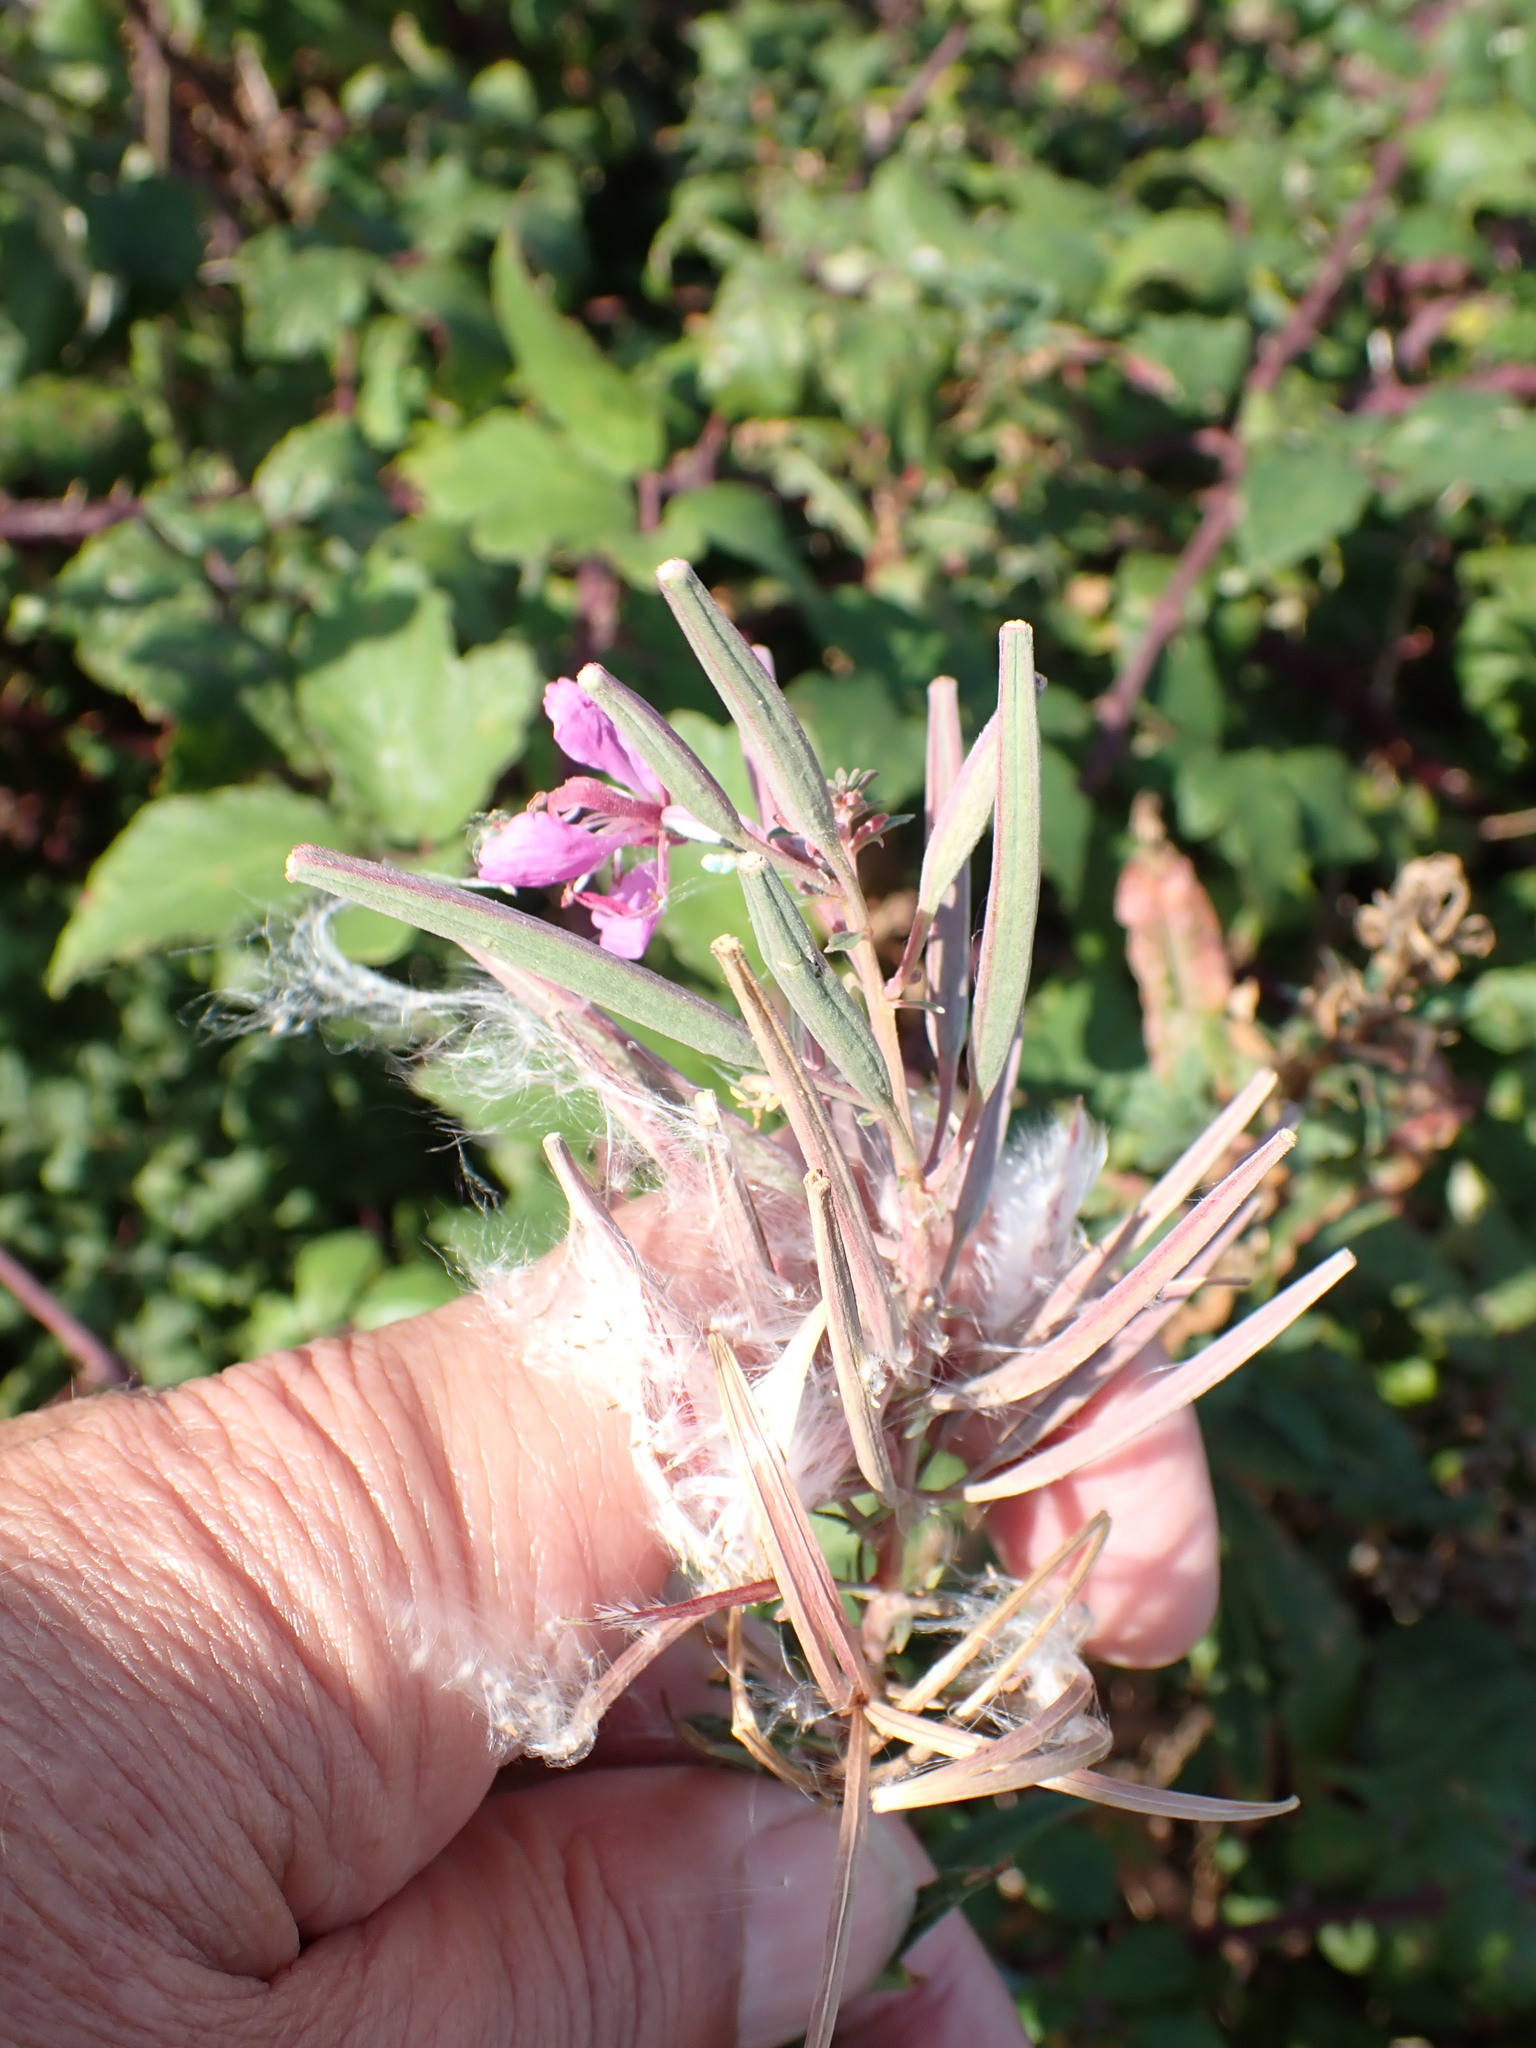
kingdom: Plantae
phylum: Tracheophyta
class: Magnoliopsida
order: Myrtales
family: Onagraceae
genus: Chamaenerion
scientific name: Chamaenerion angustifolium
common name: Fireweed
